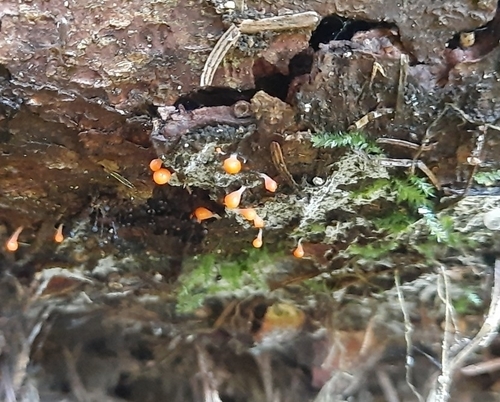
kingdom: Protozoa
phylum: Mycetozoa
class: Myxomycetes
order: Trichiales
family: Arcyriaceae
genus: Hemitrichia
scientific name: Hemitrichia decipiens
